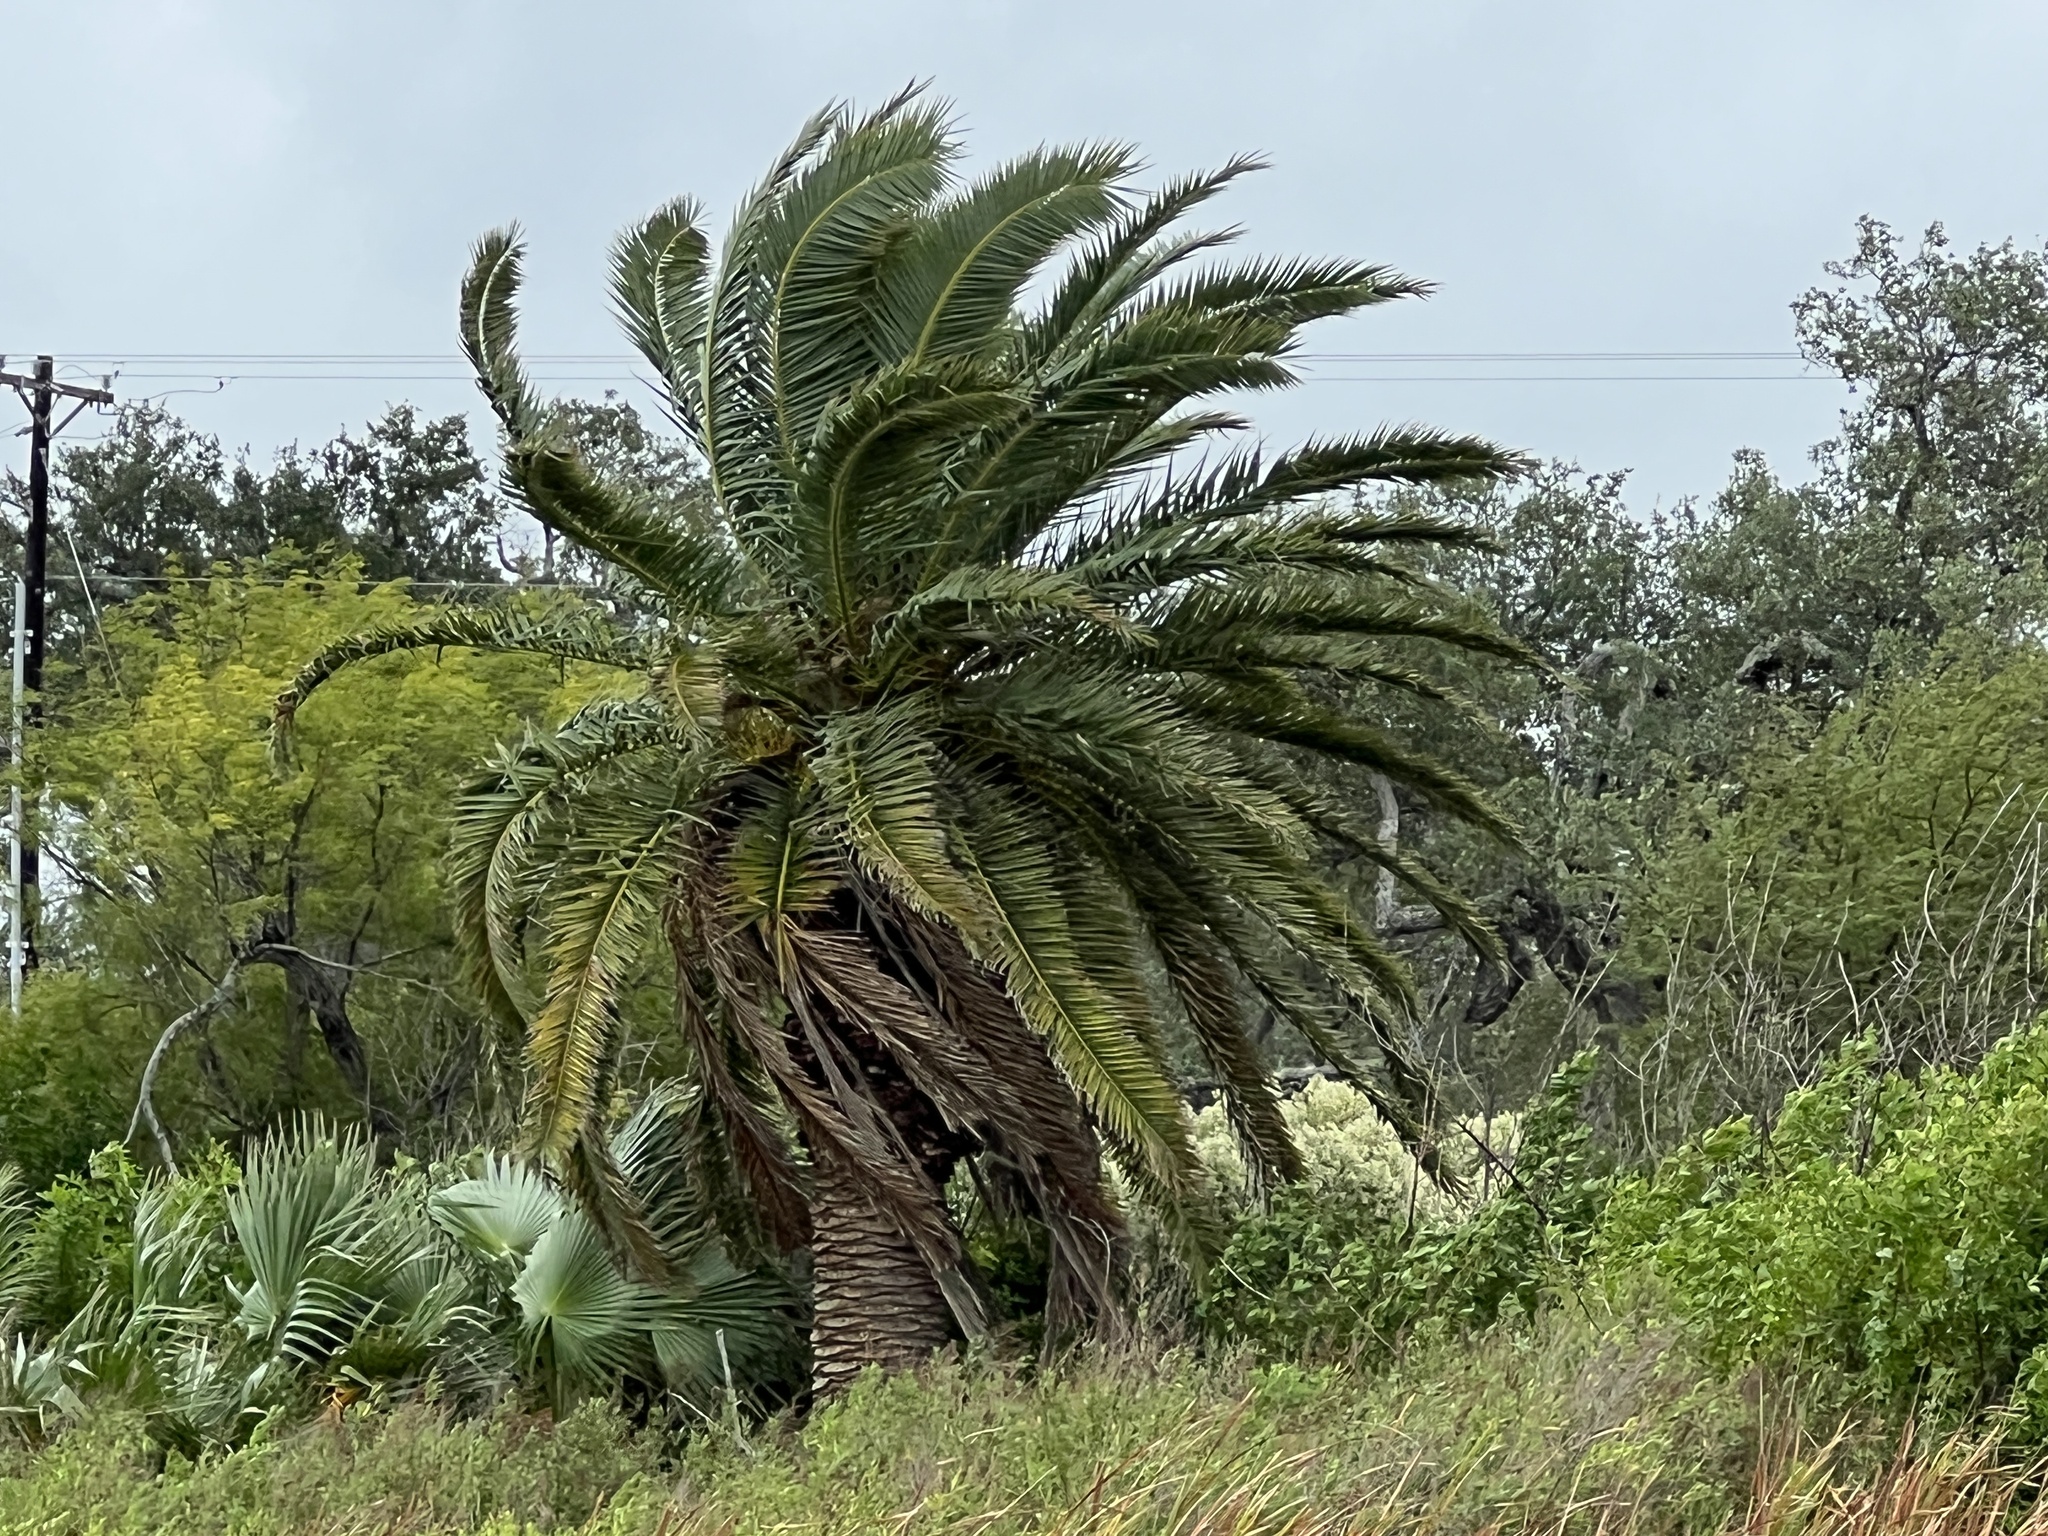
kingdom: Plantae
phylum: Tracheophyta
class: Liliopsida
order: Arecales
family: Arecaceae
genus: Phoenix
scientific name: Phoenix canariensis
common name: Canary island date palm
